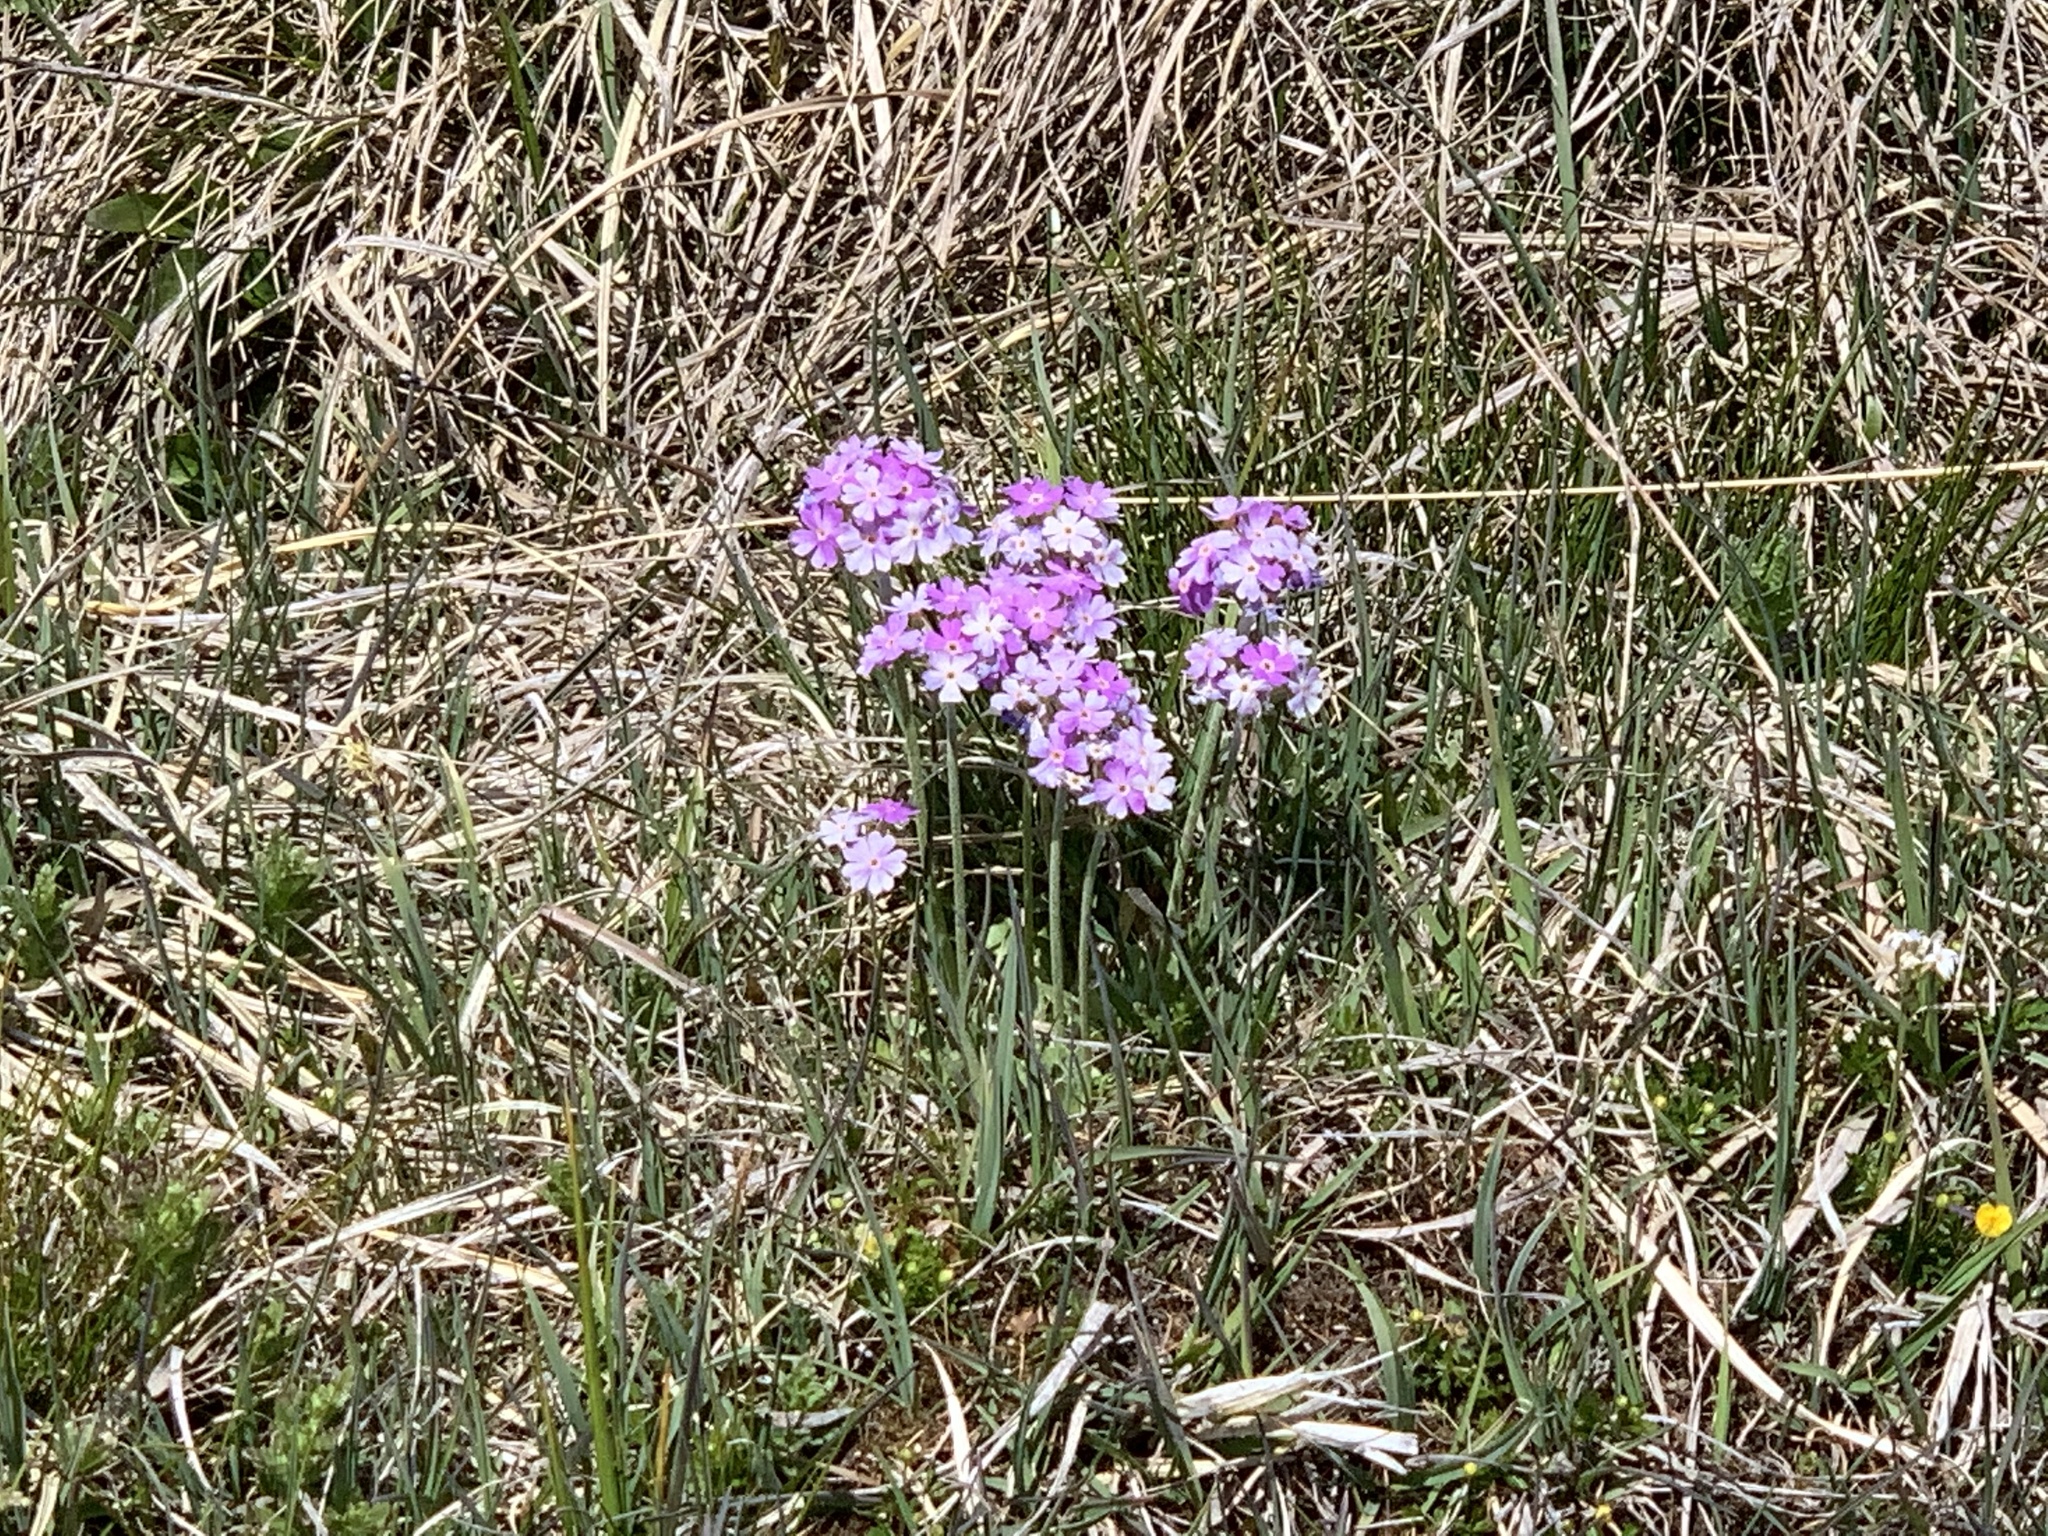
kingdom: Plantae
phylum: Tracheophyta
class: Magnoliopsida
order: Ericales
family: Primulaceae
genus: Primula
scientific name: Primula farinosa
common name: Bird's-eye primrose
